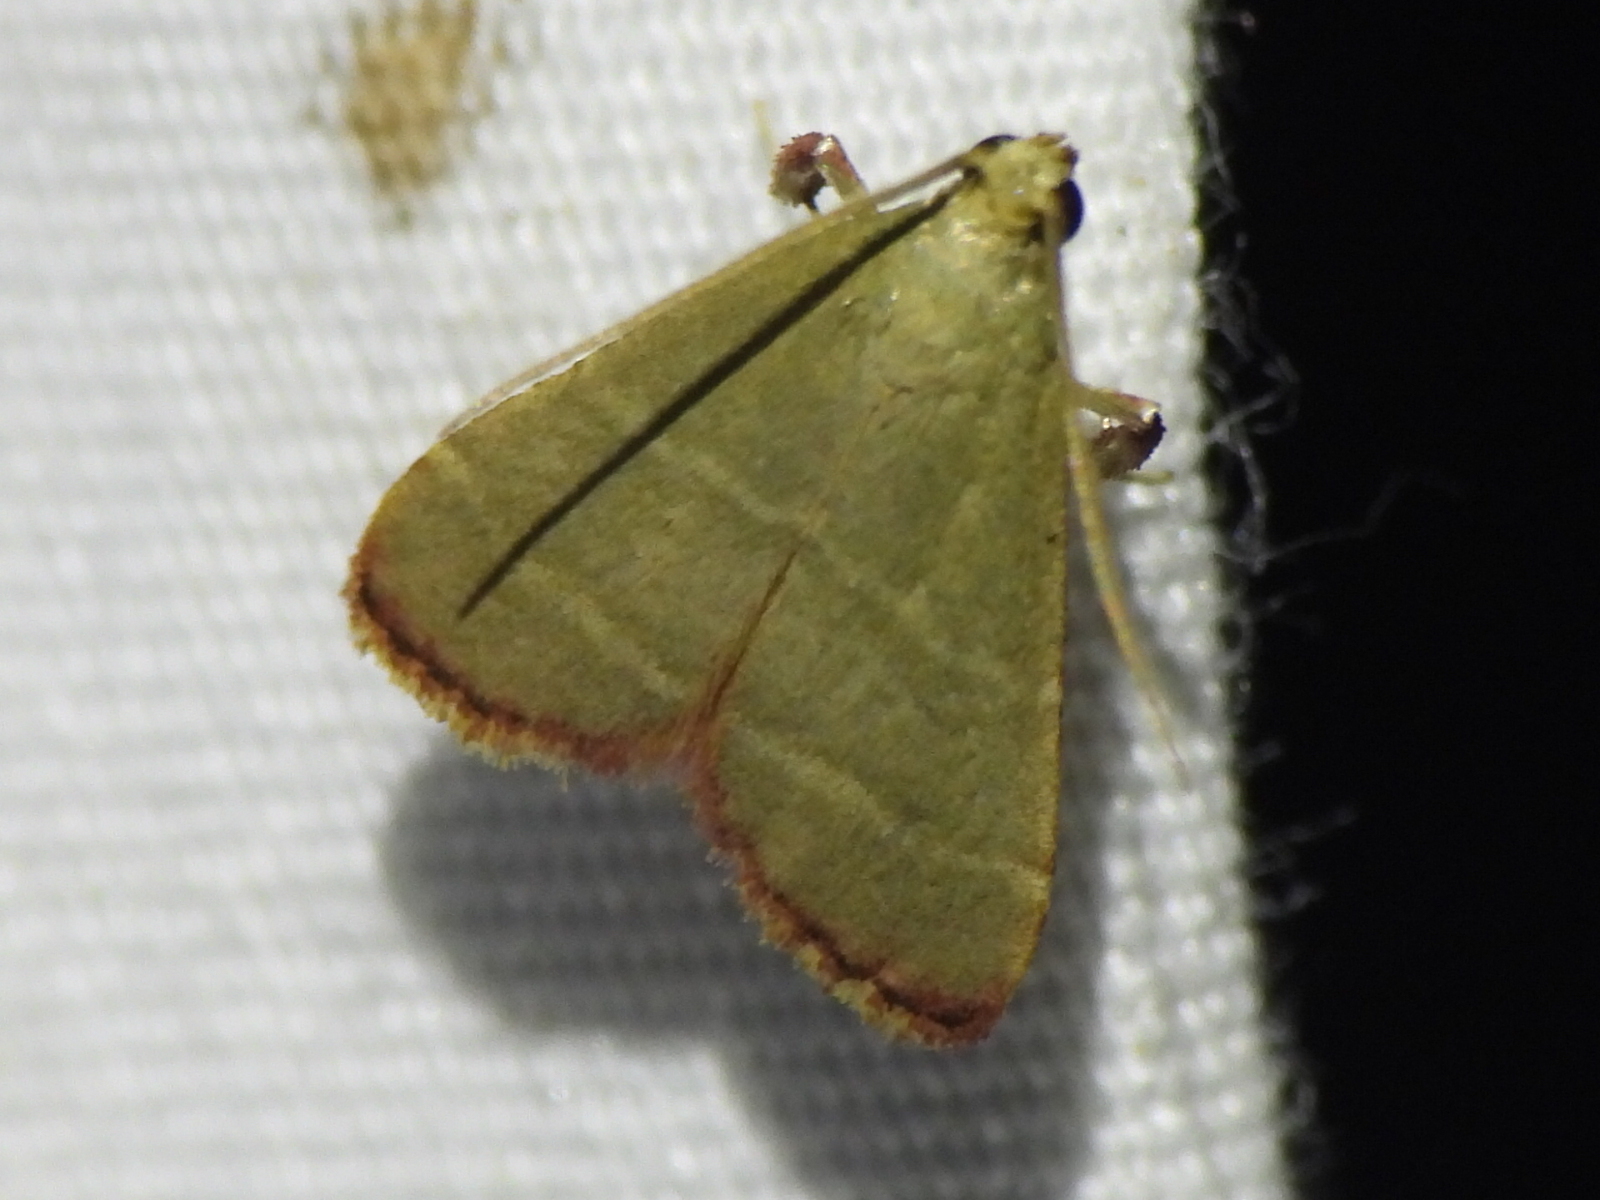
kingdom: Animalia
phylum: Arthropoda
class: Insecta
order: Lepidoptera
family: Pyralidae
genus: Arta
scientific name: Arta olivalis
